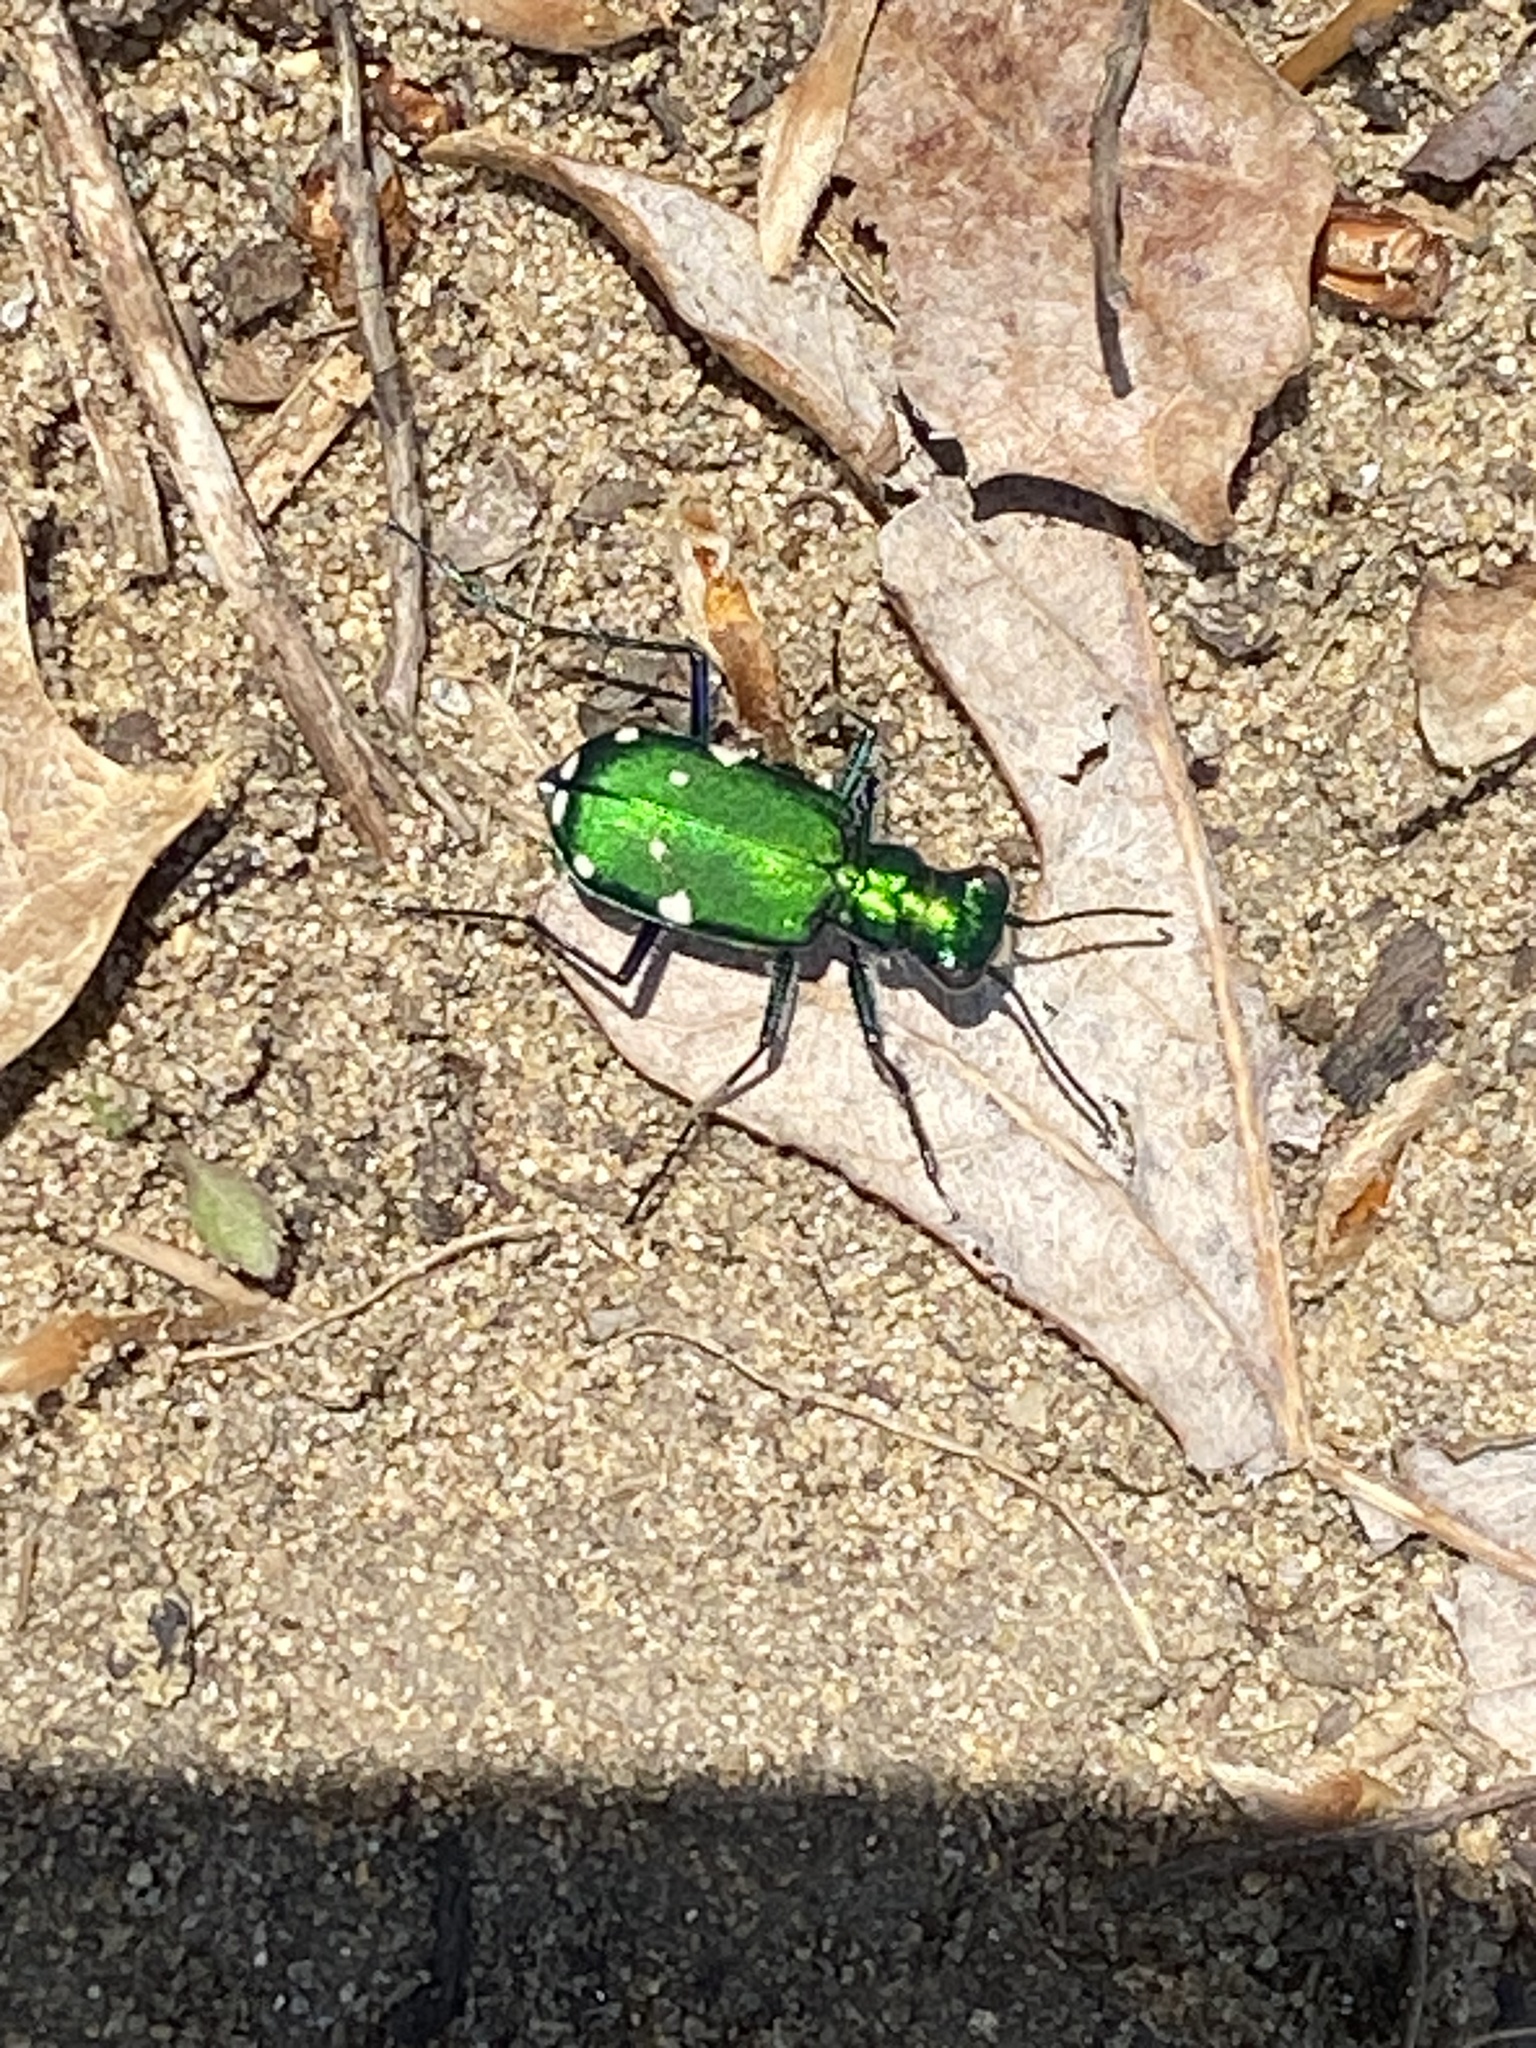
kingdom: Animalia
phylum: Arthropoda
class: Insecta
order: Coleoptera
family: Carabidae
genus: Cicindela
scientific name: Cicindela sexguttata
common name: Six-spotted tiger beetle
